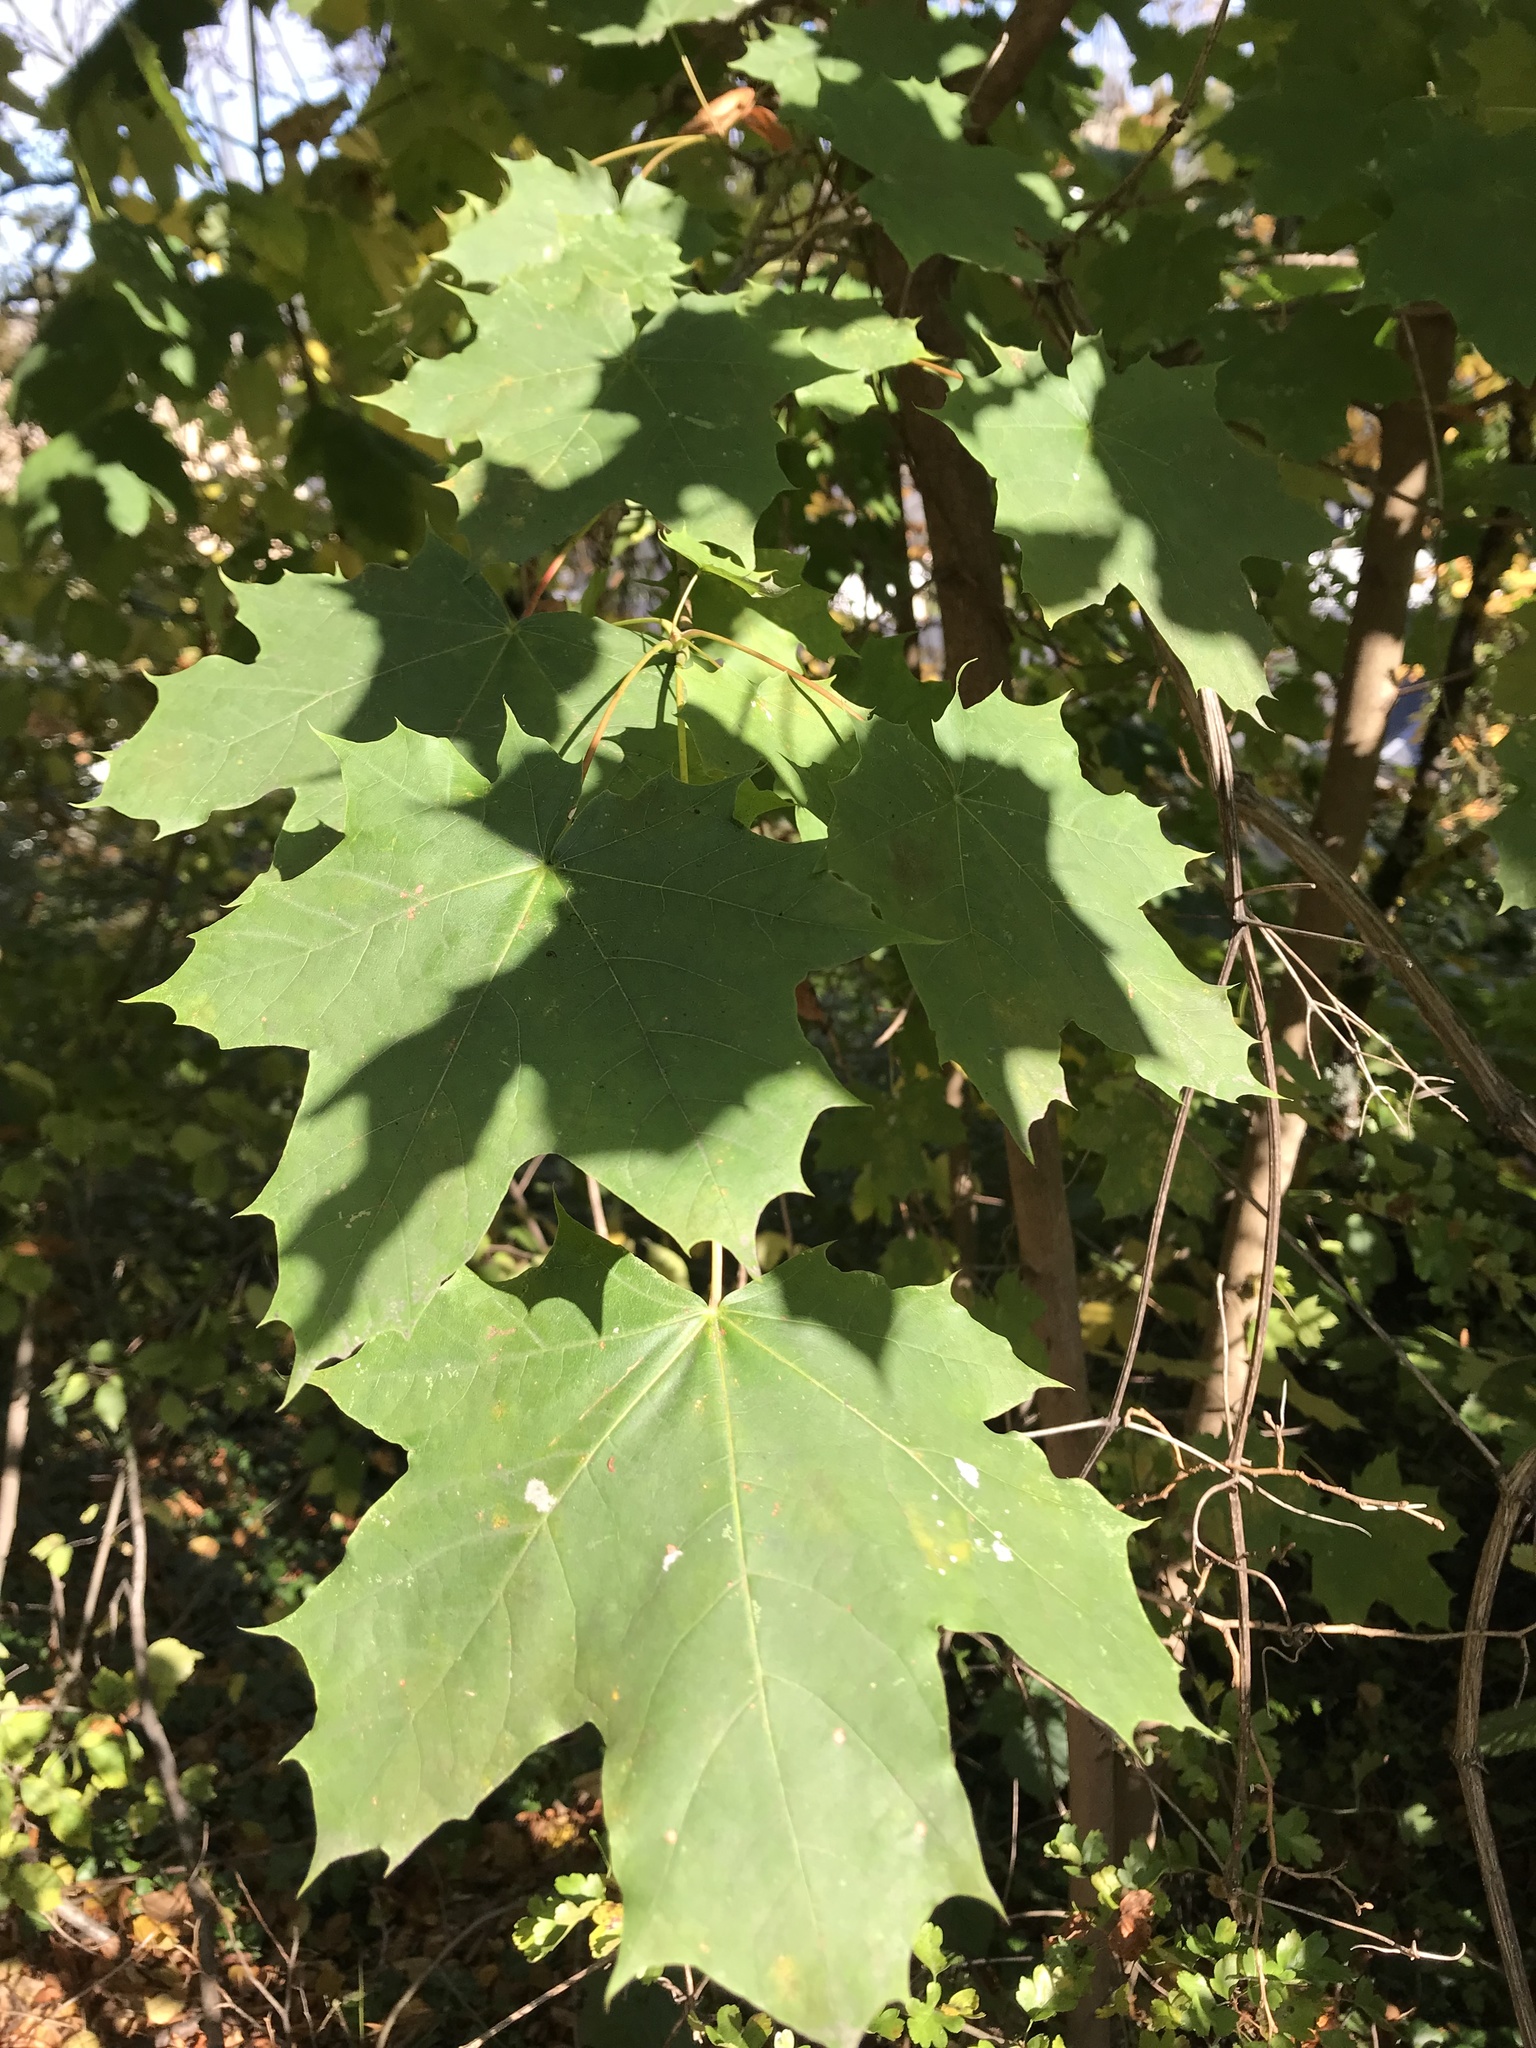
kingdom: Plantae
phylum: Tracheophyta
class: Magnoliopsida
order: Sapindales
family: Sapindaceae
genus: Acer
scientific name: Acer platanoides
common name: Norway maple
